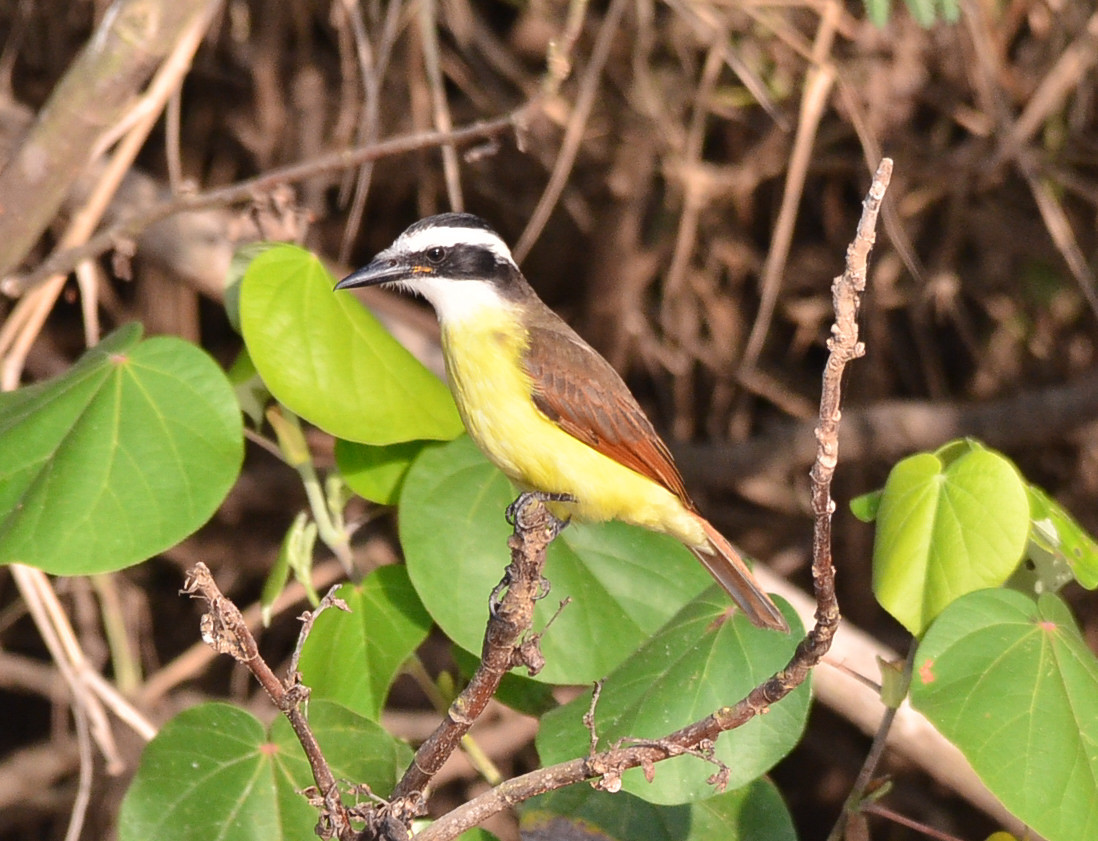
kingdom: Animalia
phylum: Chordata
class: Aves
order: Passeriformes
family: Tyrannidae
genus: Pitangus
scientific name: Pitangus sulphuratus
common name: Great kiskadee
